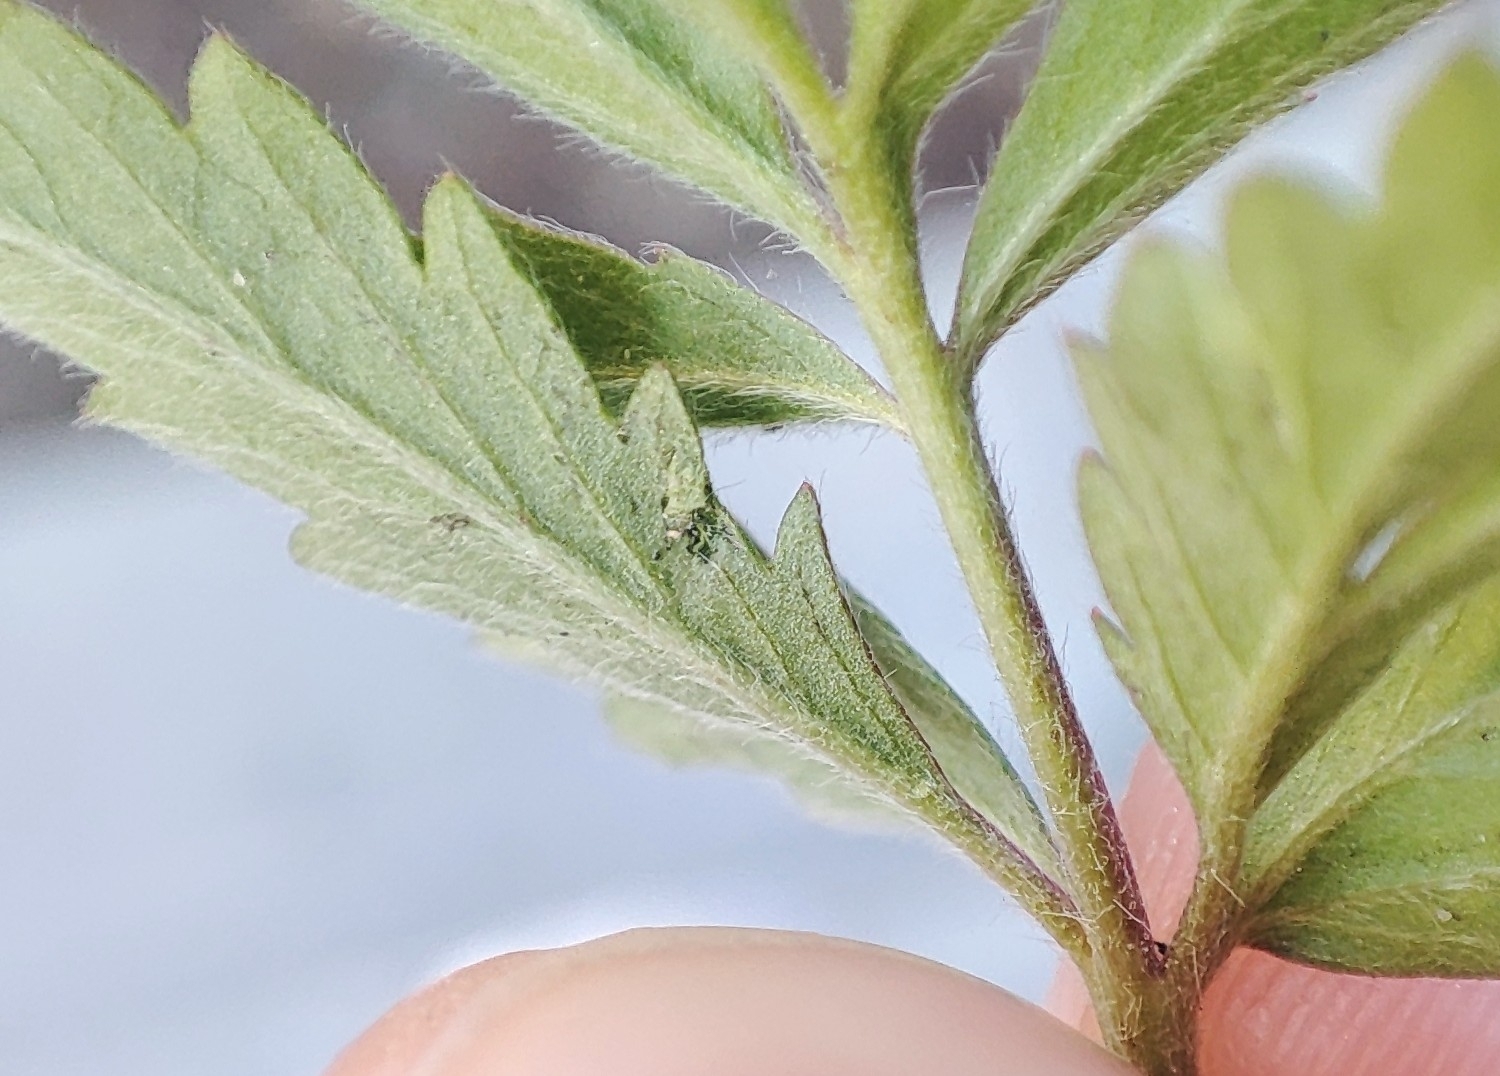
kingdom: Plantae
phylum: Tracheophyta
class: Magnoliopsida
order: Rosales
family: Rosaceae
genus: Potentilla
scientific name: Potentilla supina
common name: Prostrate cinquefoil
